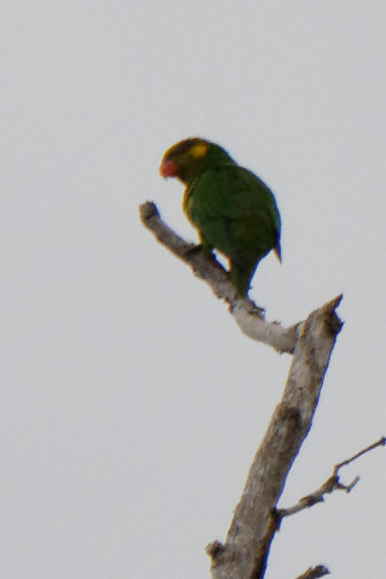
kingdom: Animalia
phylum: Chordata
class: Aves
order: Psittaciformes
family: Psittaculidae
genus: Saudareos
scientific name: Saudareos meyeri
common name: Yellow-cheeked lorikeet
